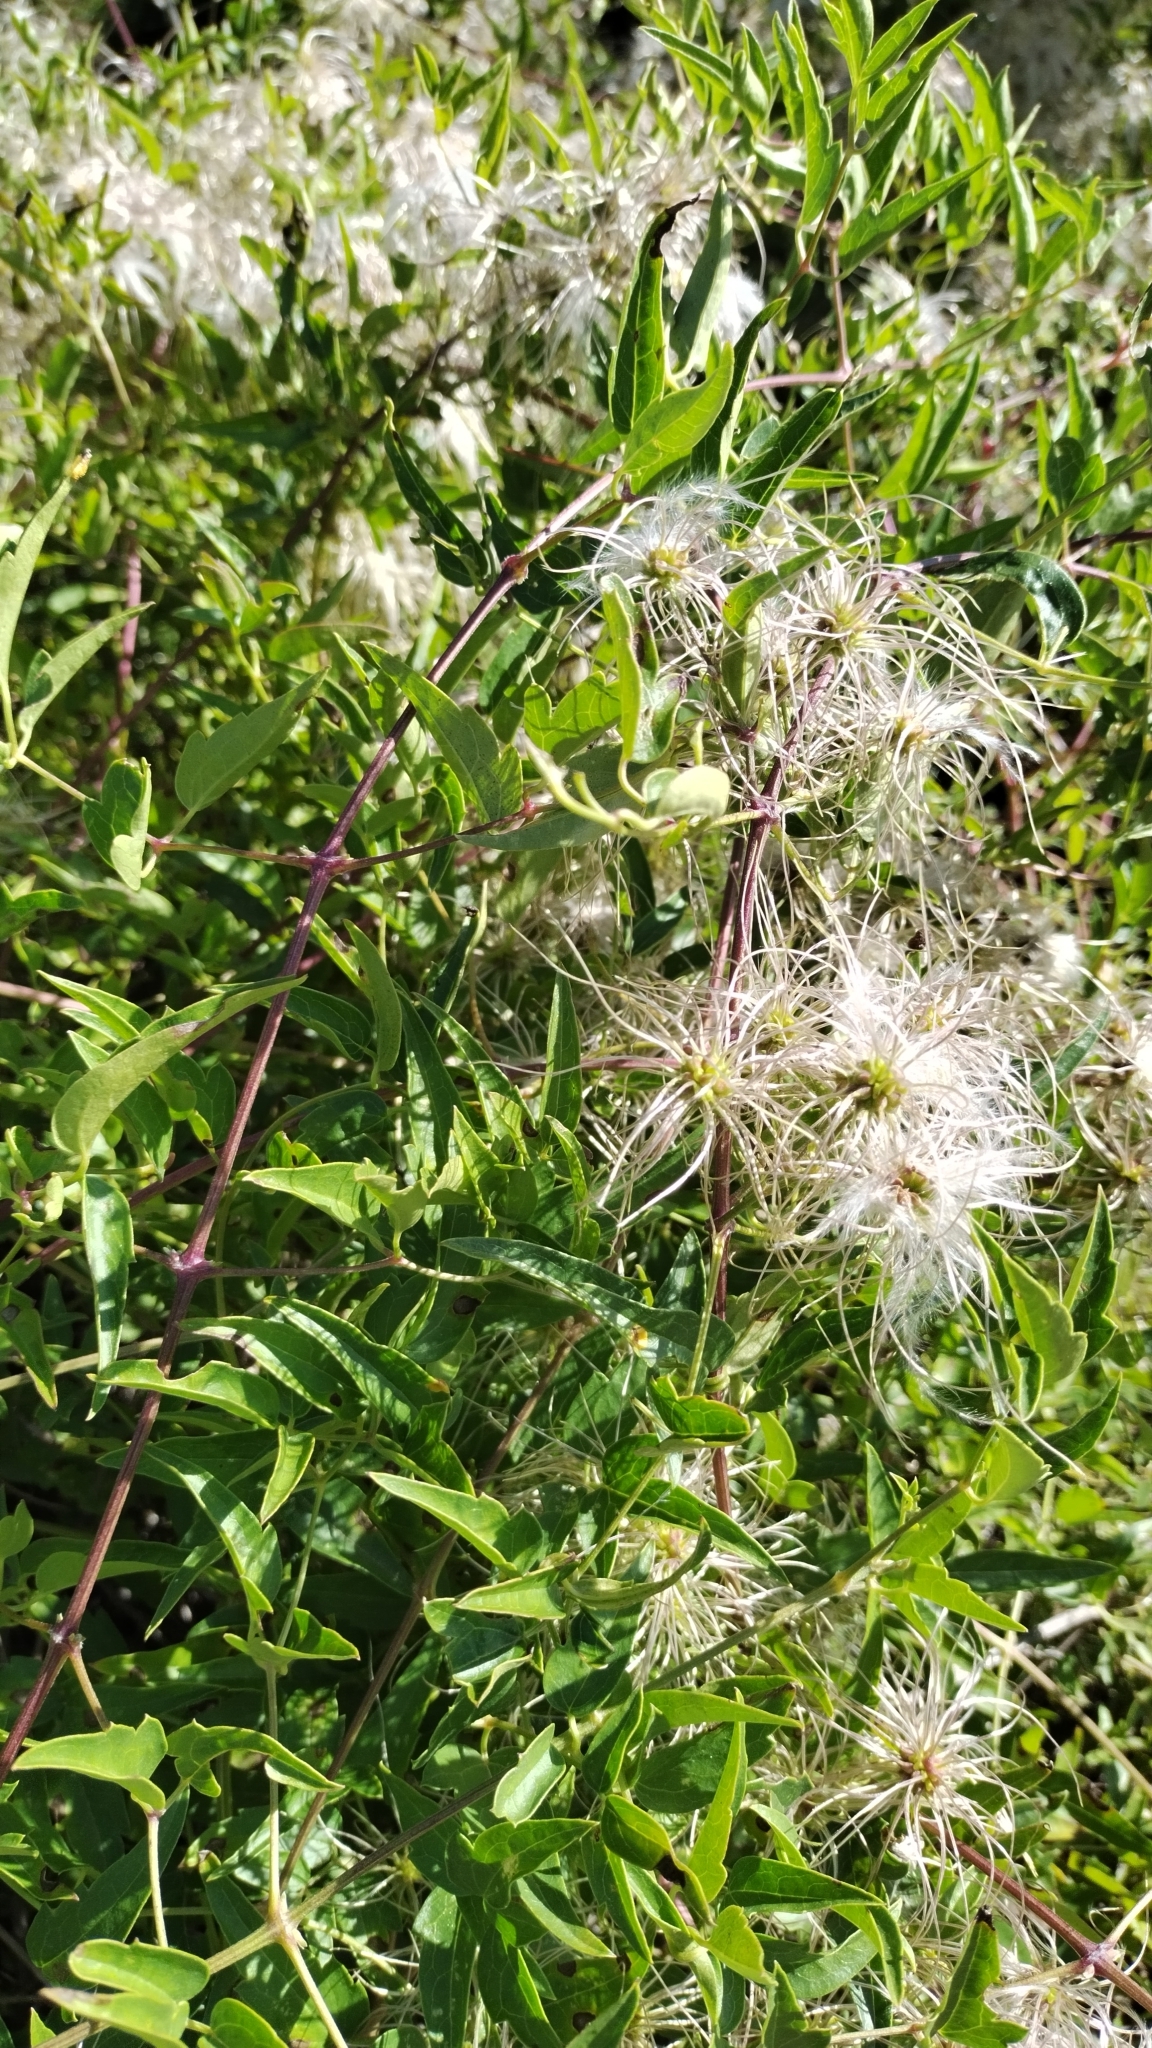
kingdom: Plantae
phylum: Tracheophyta
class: Magnoliopsida
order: Ranunculales
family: Ranunculaceae
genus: Clematis
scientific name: Clematis ligusticifolia
